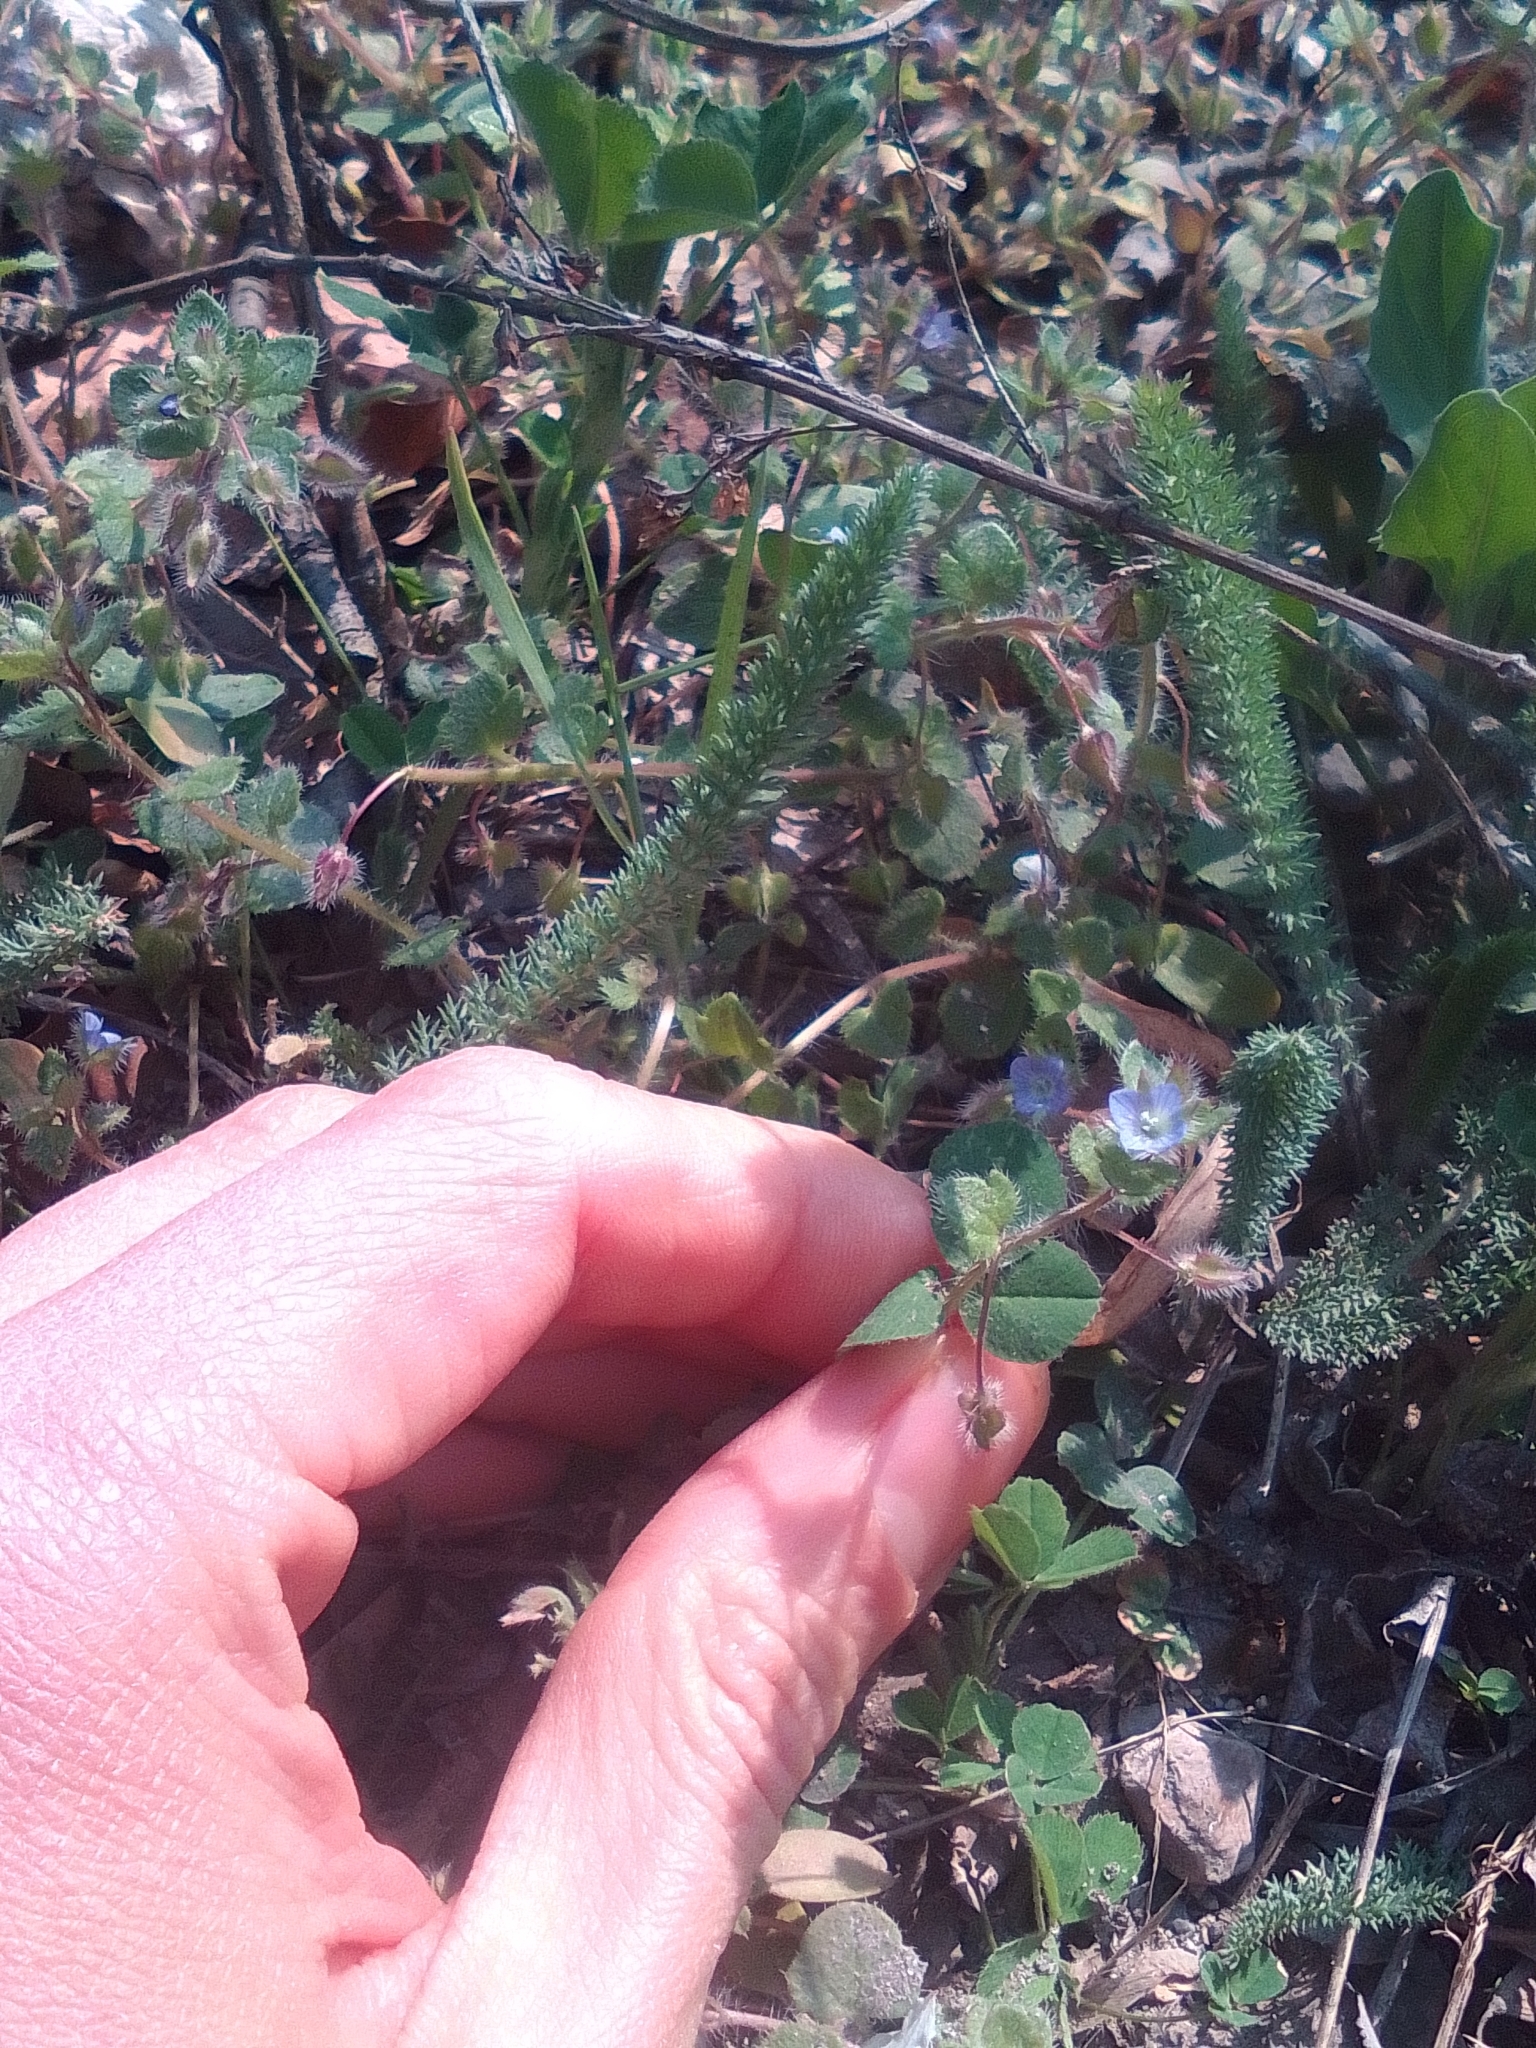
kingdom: Plantae
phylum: Tracheophyta
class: Magnoliopsida
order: Lamiales
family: Plantaginaceae
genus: Veronica
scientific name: Veronica hederifolia
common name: Ivy-leaved speedwell
